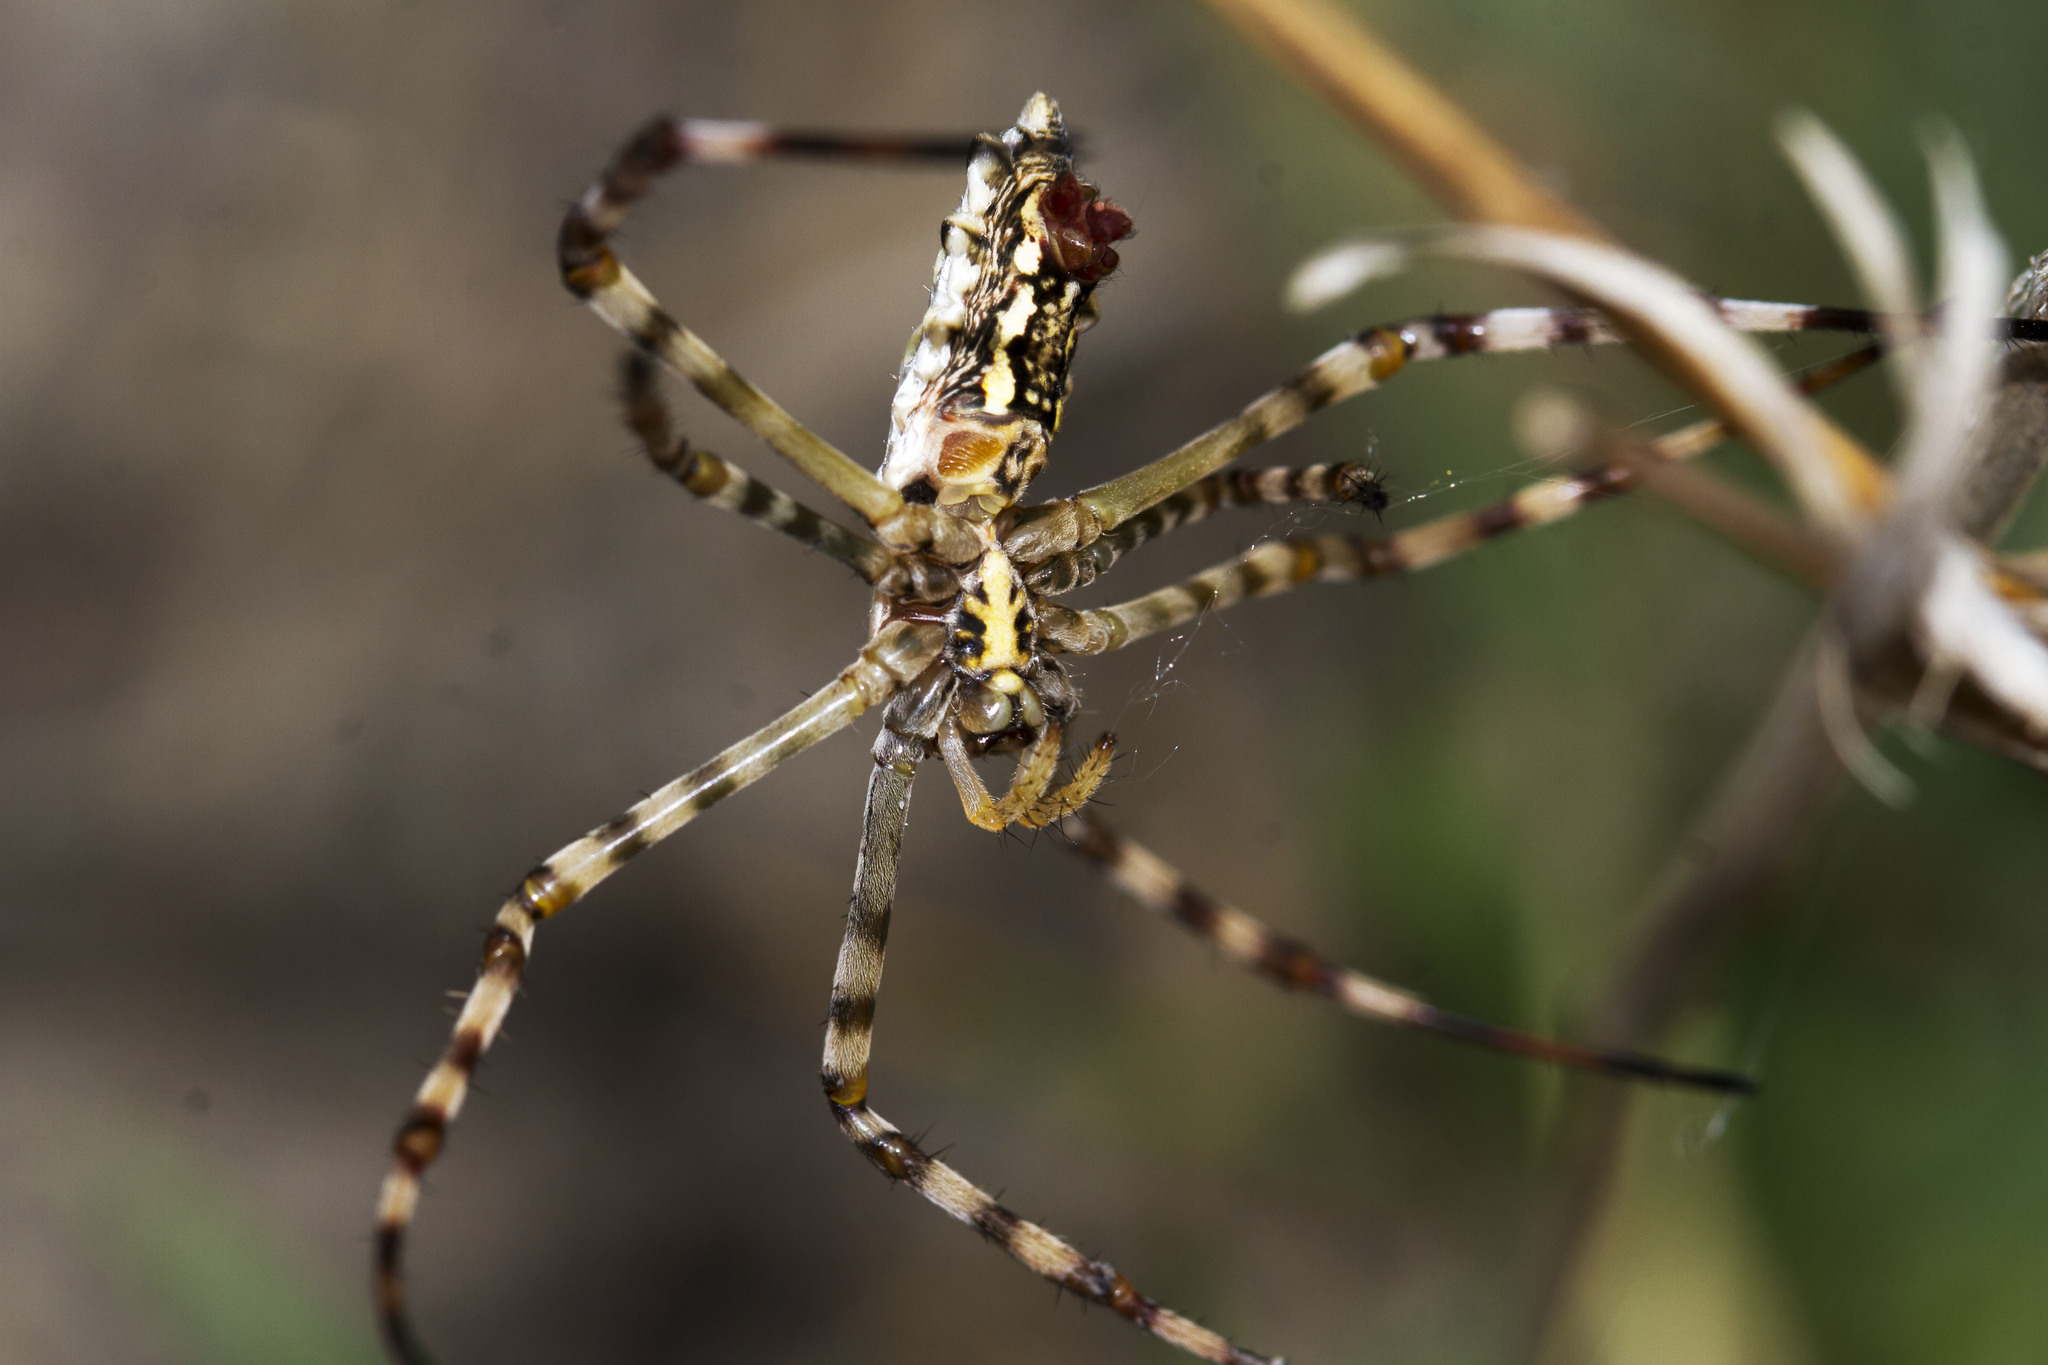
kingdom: Animalia
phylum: Arthropoda
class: Arachnida
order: Araneae
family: Araneidae
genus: Argiope
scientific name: Argiope lobata
